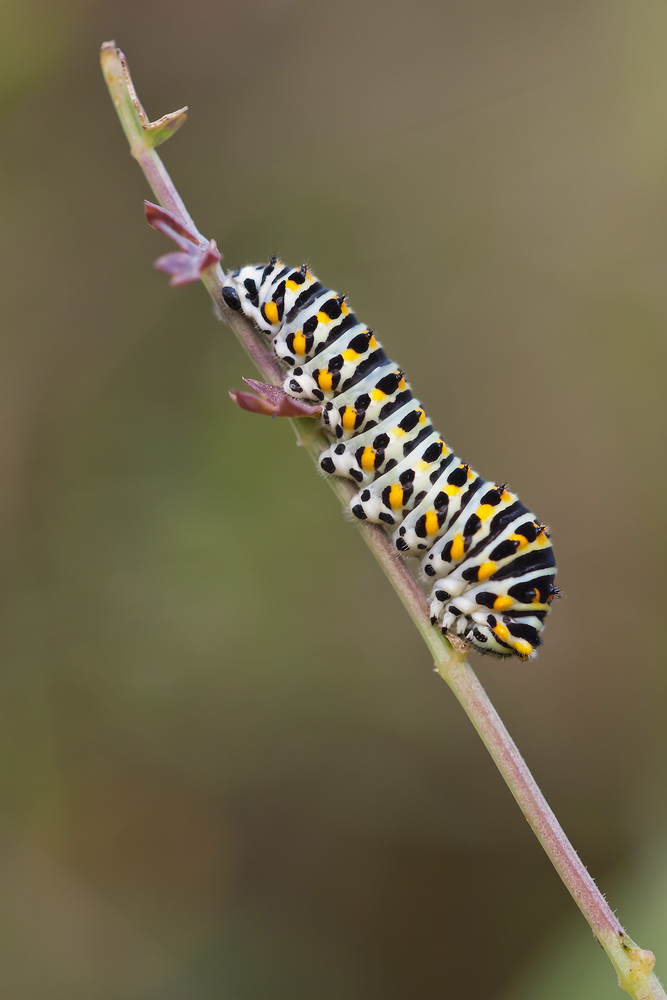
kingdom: Animalia
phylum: Arthropoda
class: Insecta
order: Lepidoptera
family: Papilionidae
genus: Papilio
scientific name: Papilio machaon
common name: Swallowtail
